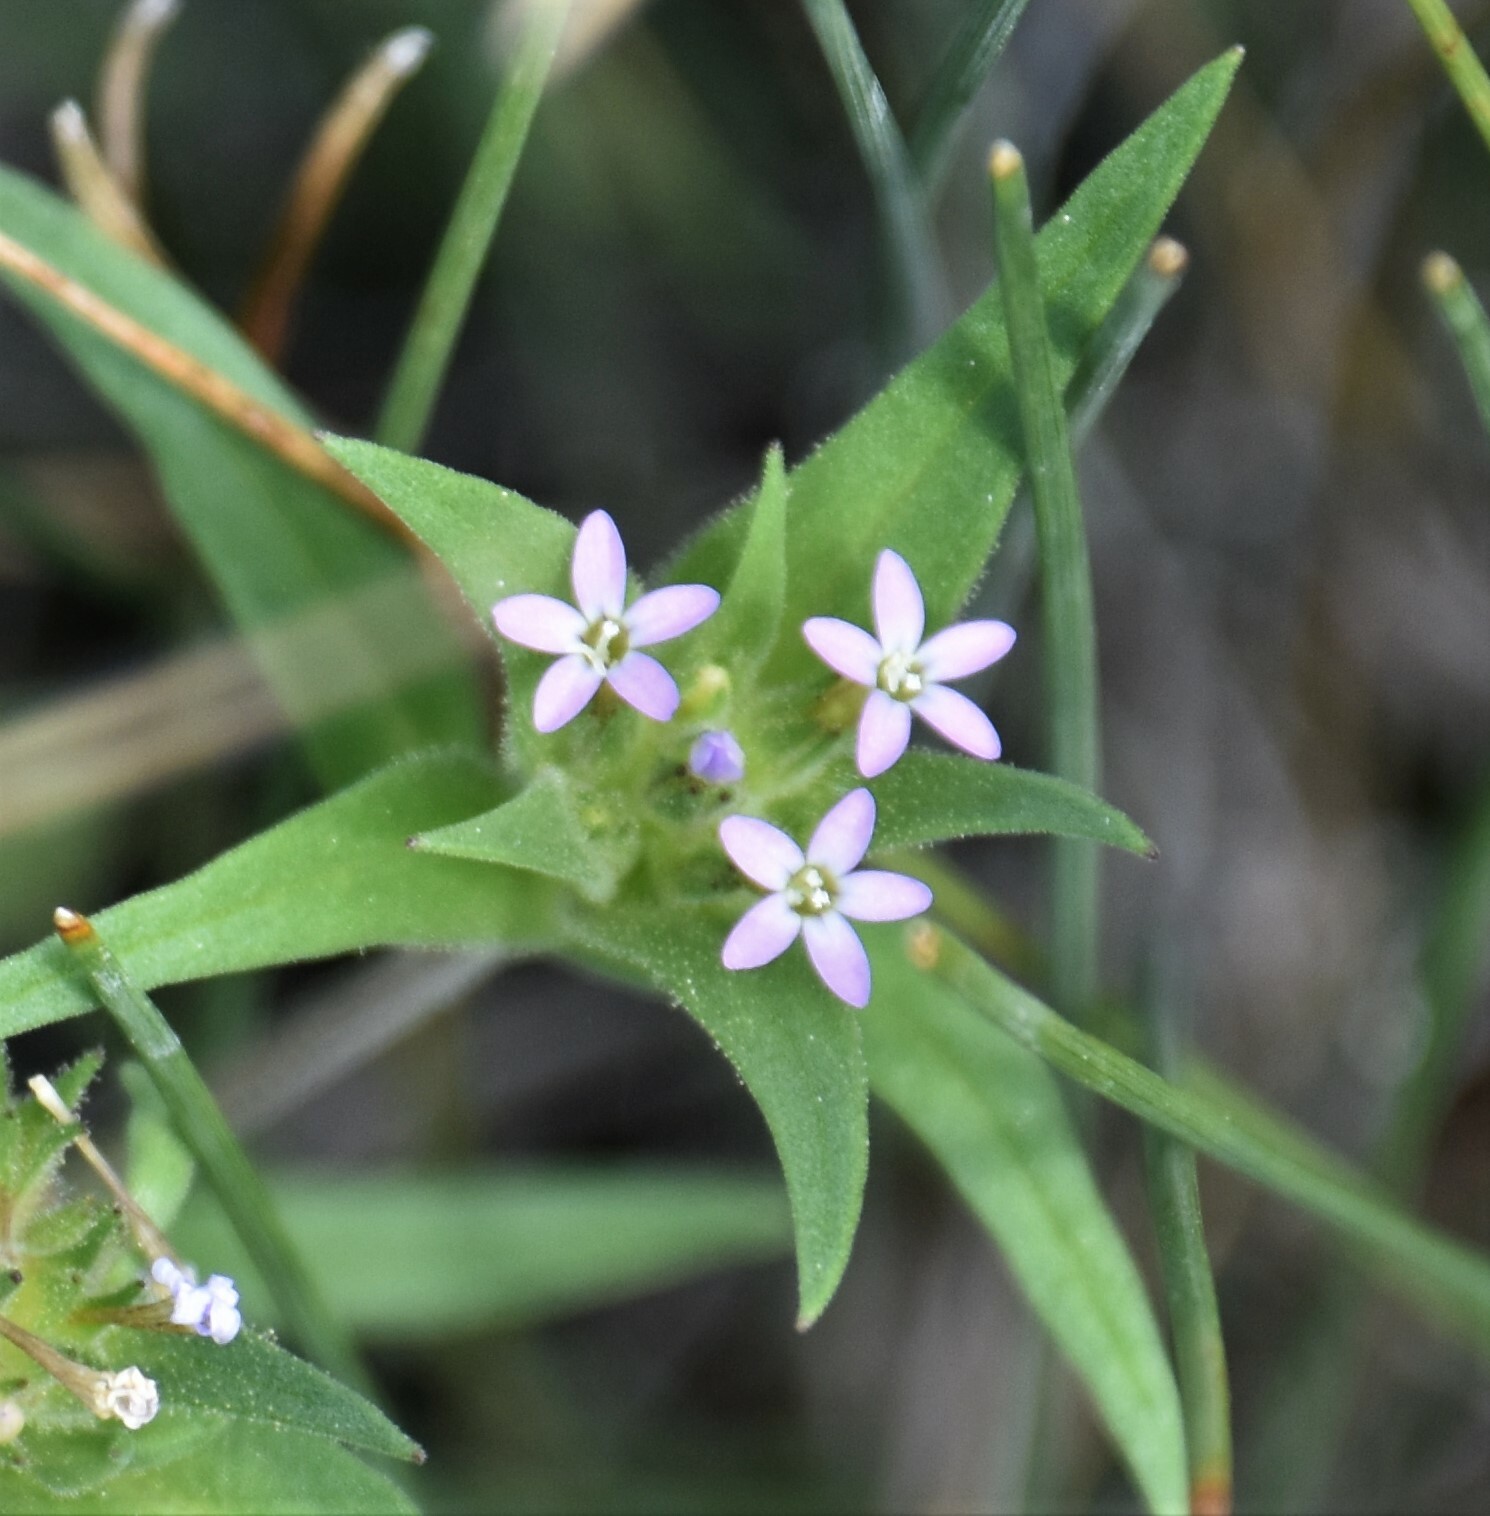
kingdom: Plantae
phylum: Tracheophyta
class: Magnoliopsida
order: Ericales
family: Polemoniaceae
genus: Collomia
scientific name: Collomia linearis
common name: Tiny trumpet
